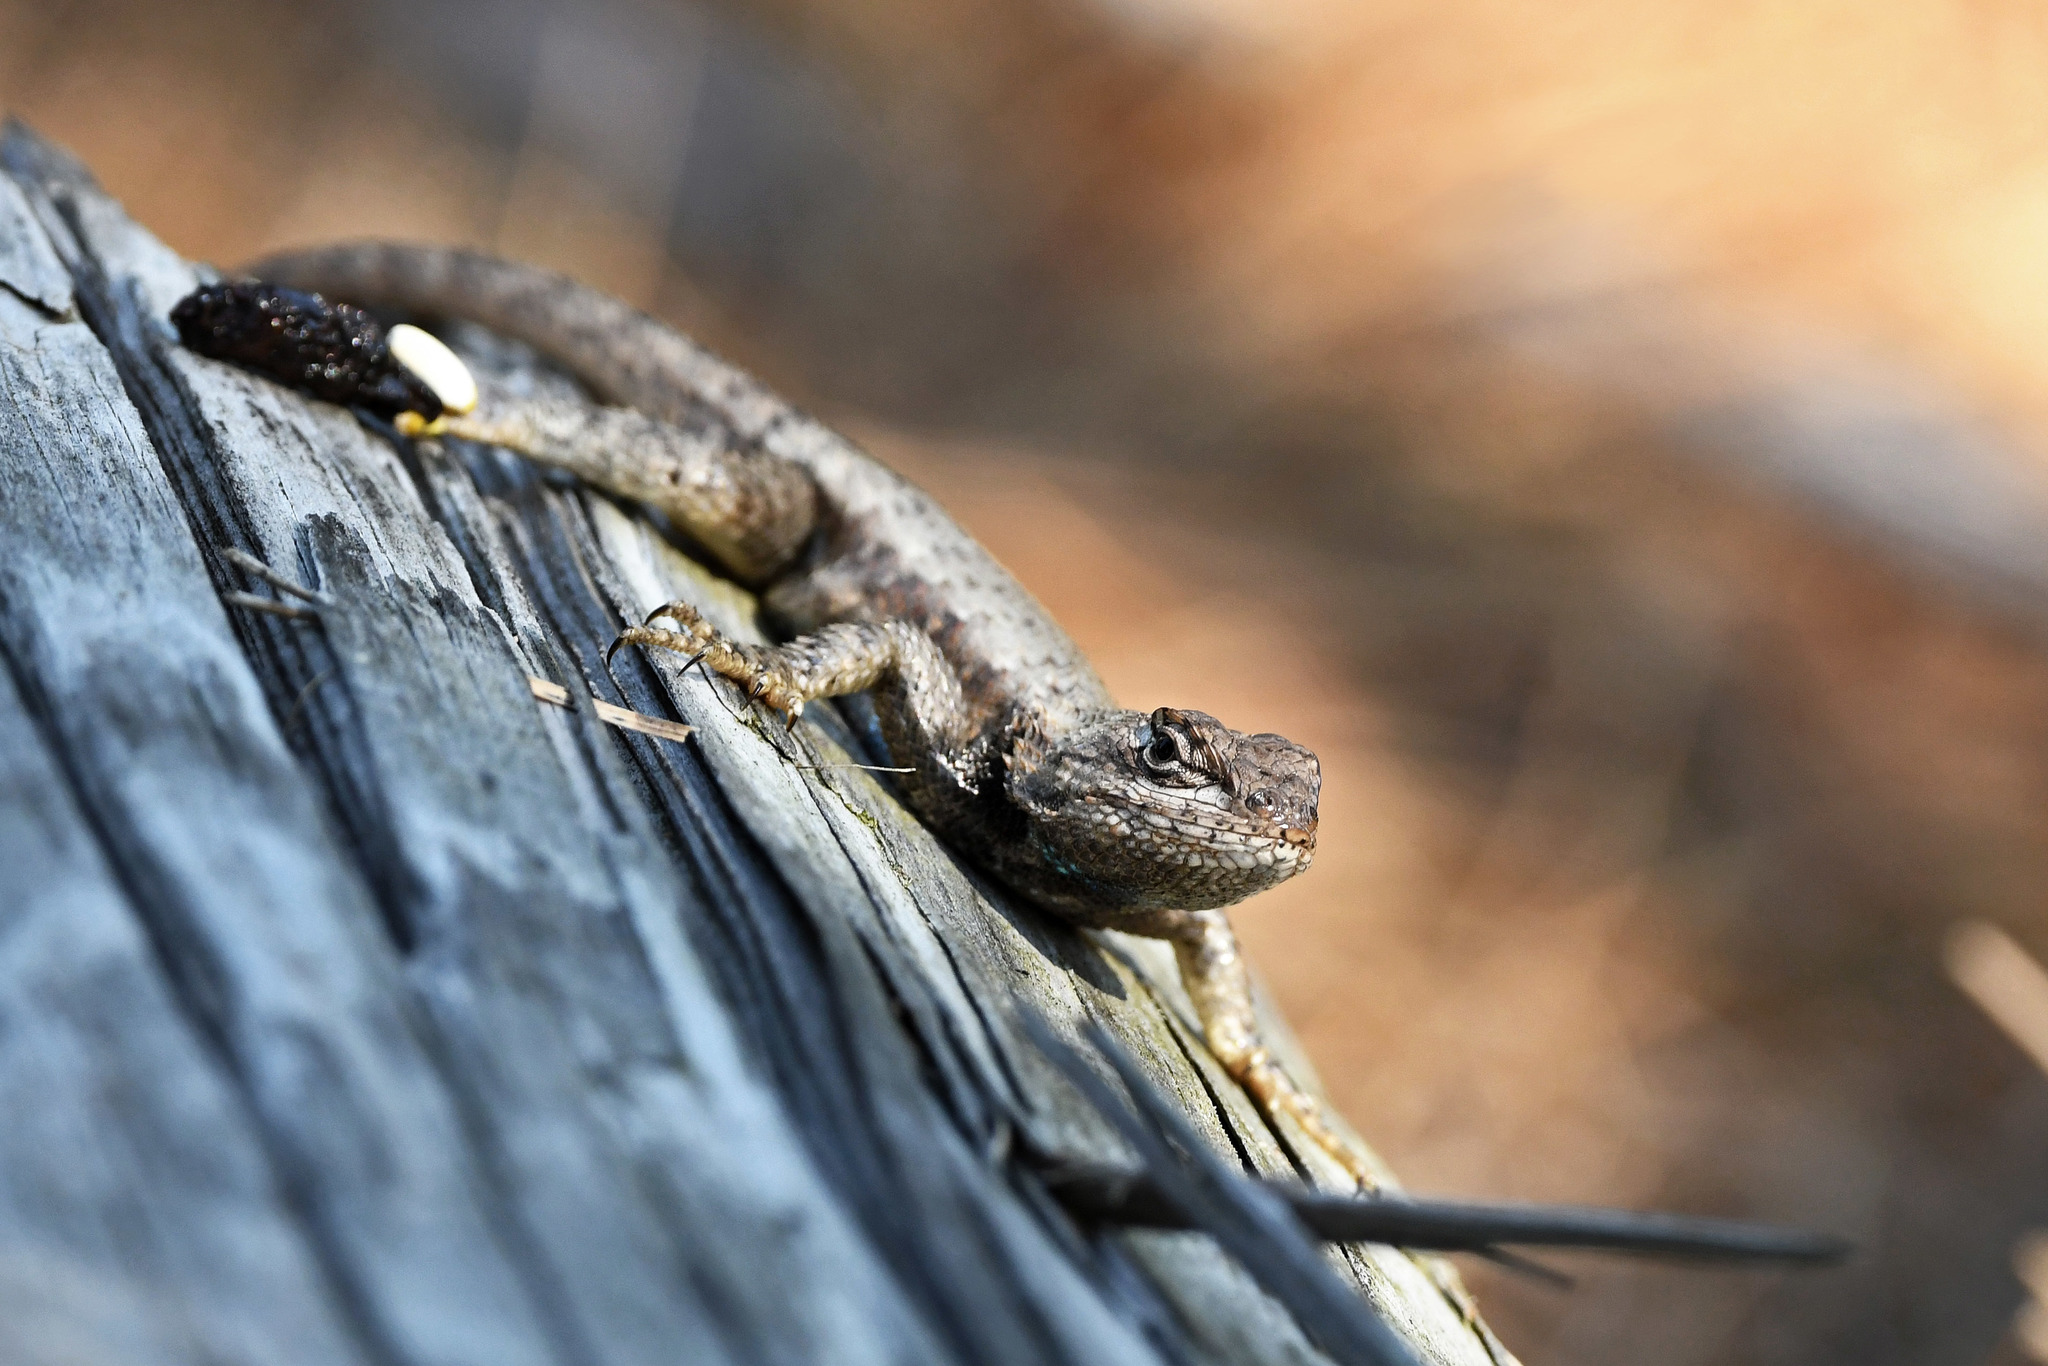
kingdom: Animalia
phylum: Chordata
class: Squamata
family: Phrynosomatidae
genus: Sceloporus
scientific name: Sceloporus undulatus
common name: Eastern fence lizard
